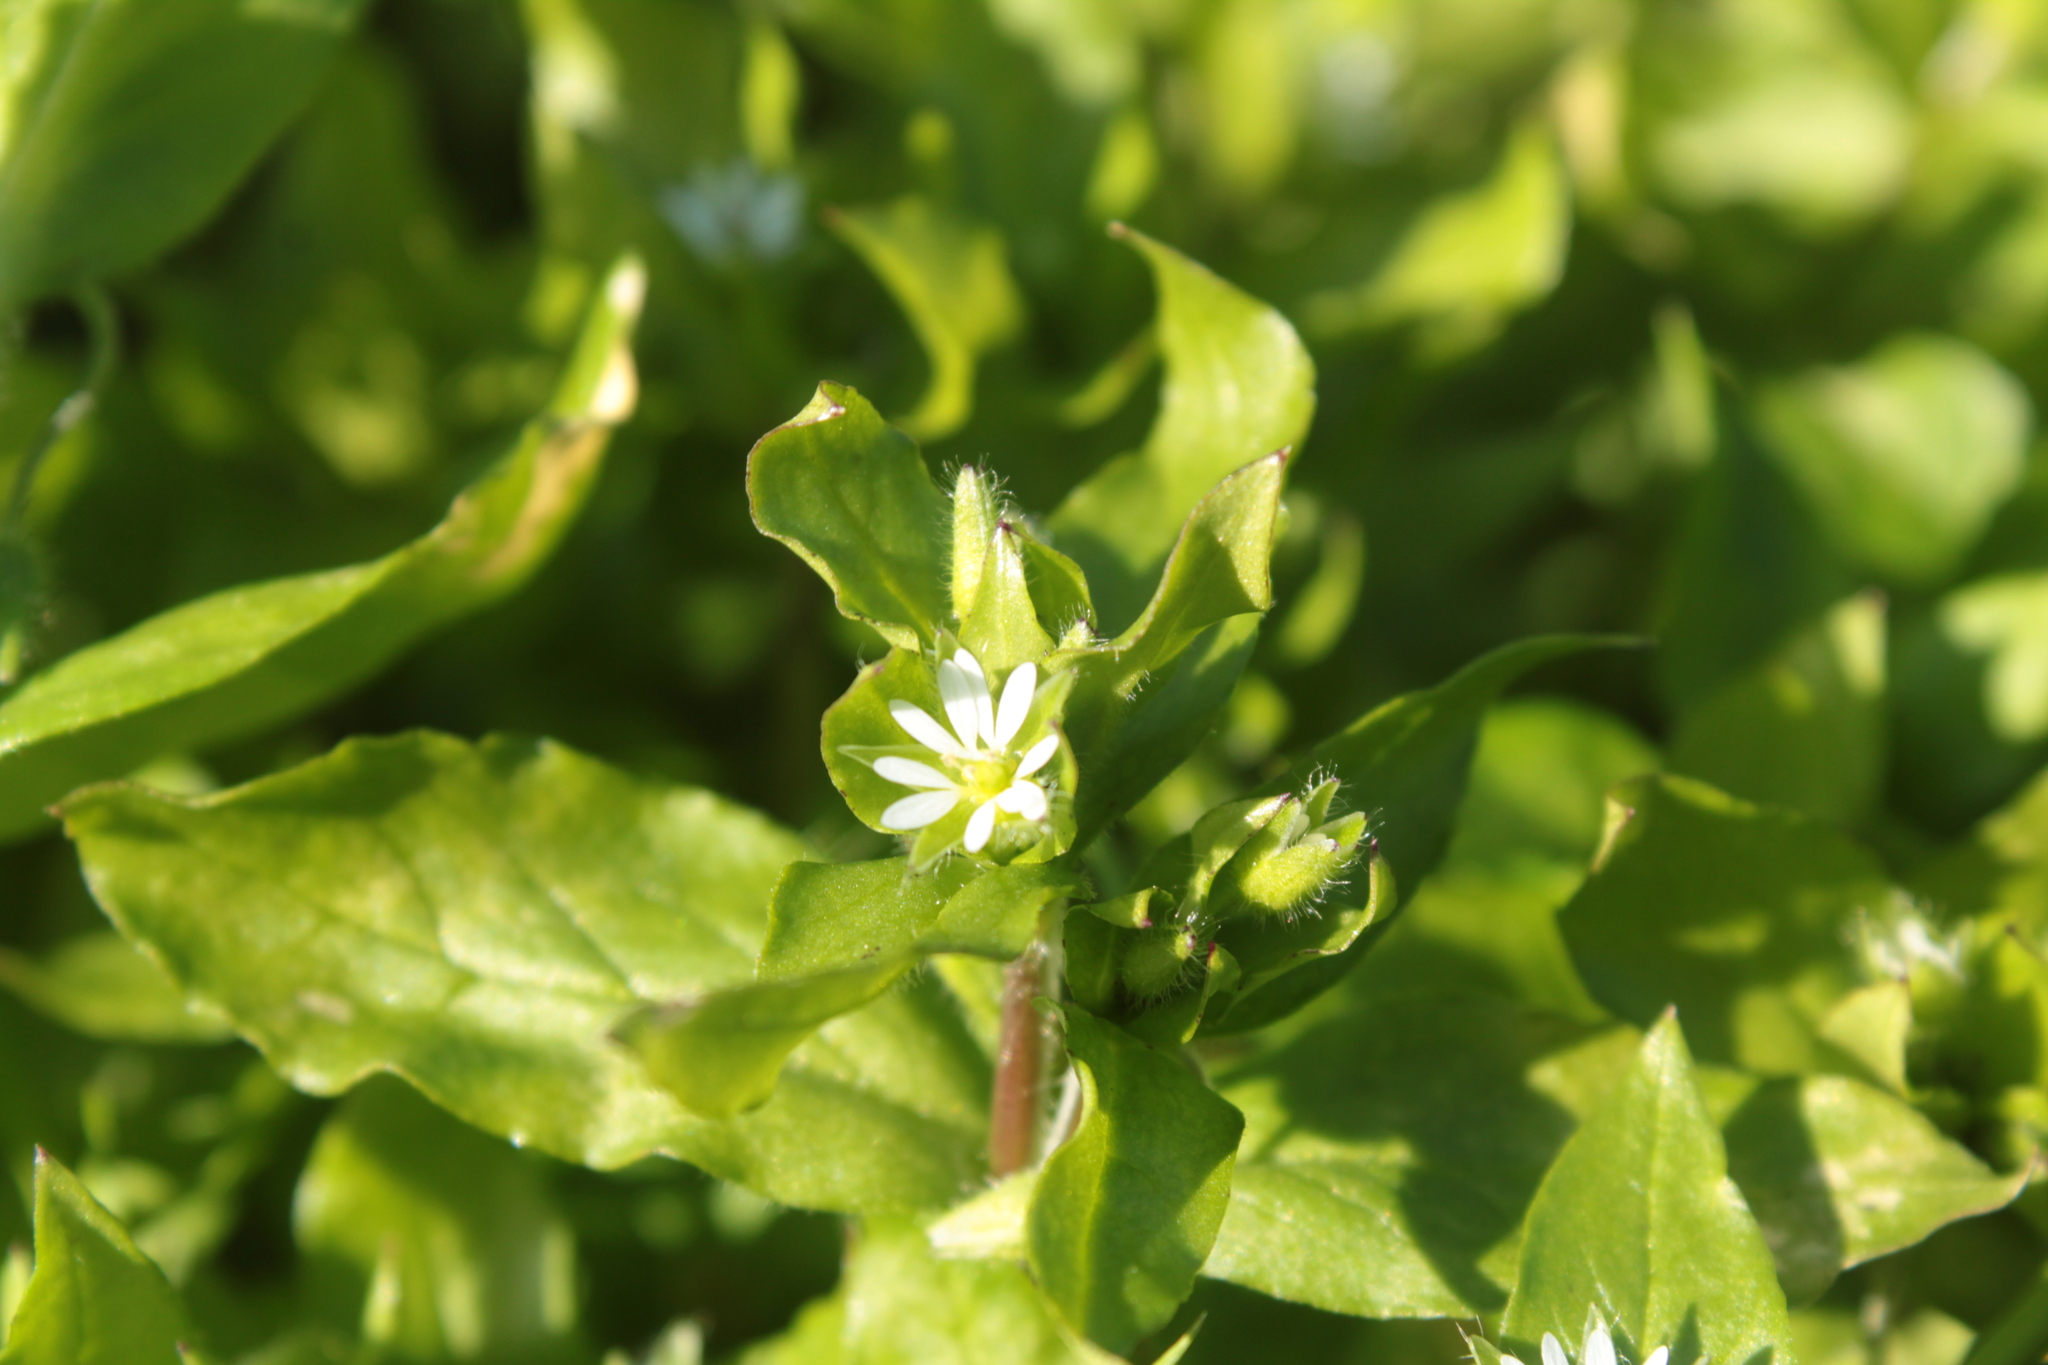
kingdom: Plantae
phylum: Tracheophyta
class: Magnoliopsida
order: Caryophyllales
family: Caryophyllaceae
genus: Stellaria
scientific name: Stellaria media
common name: Common chickweed
